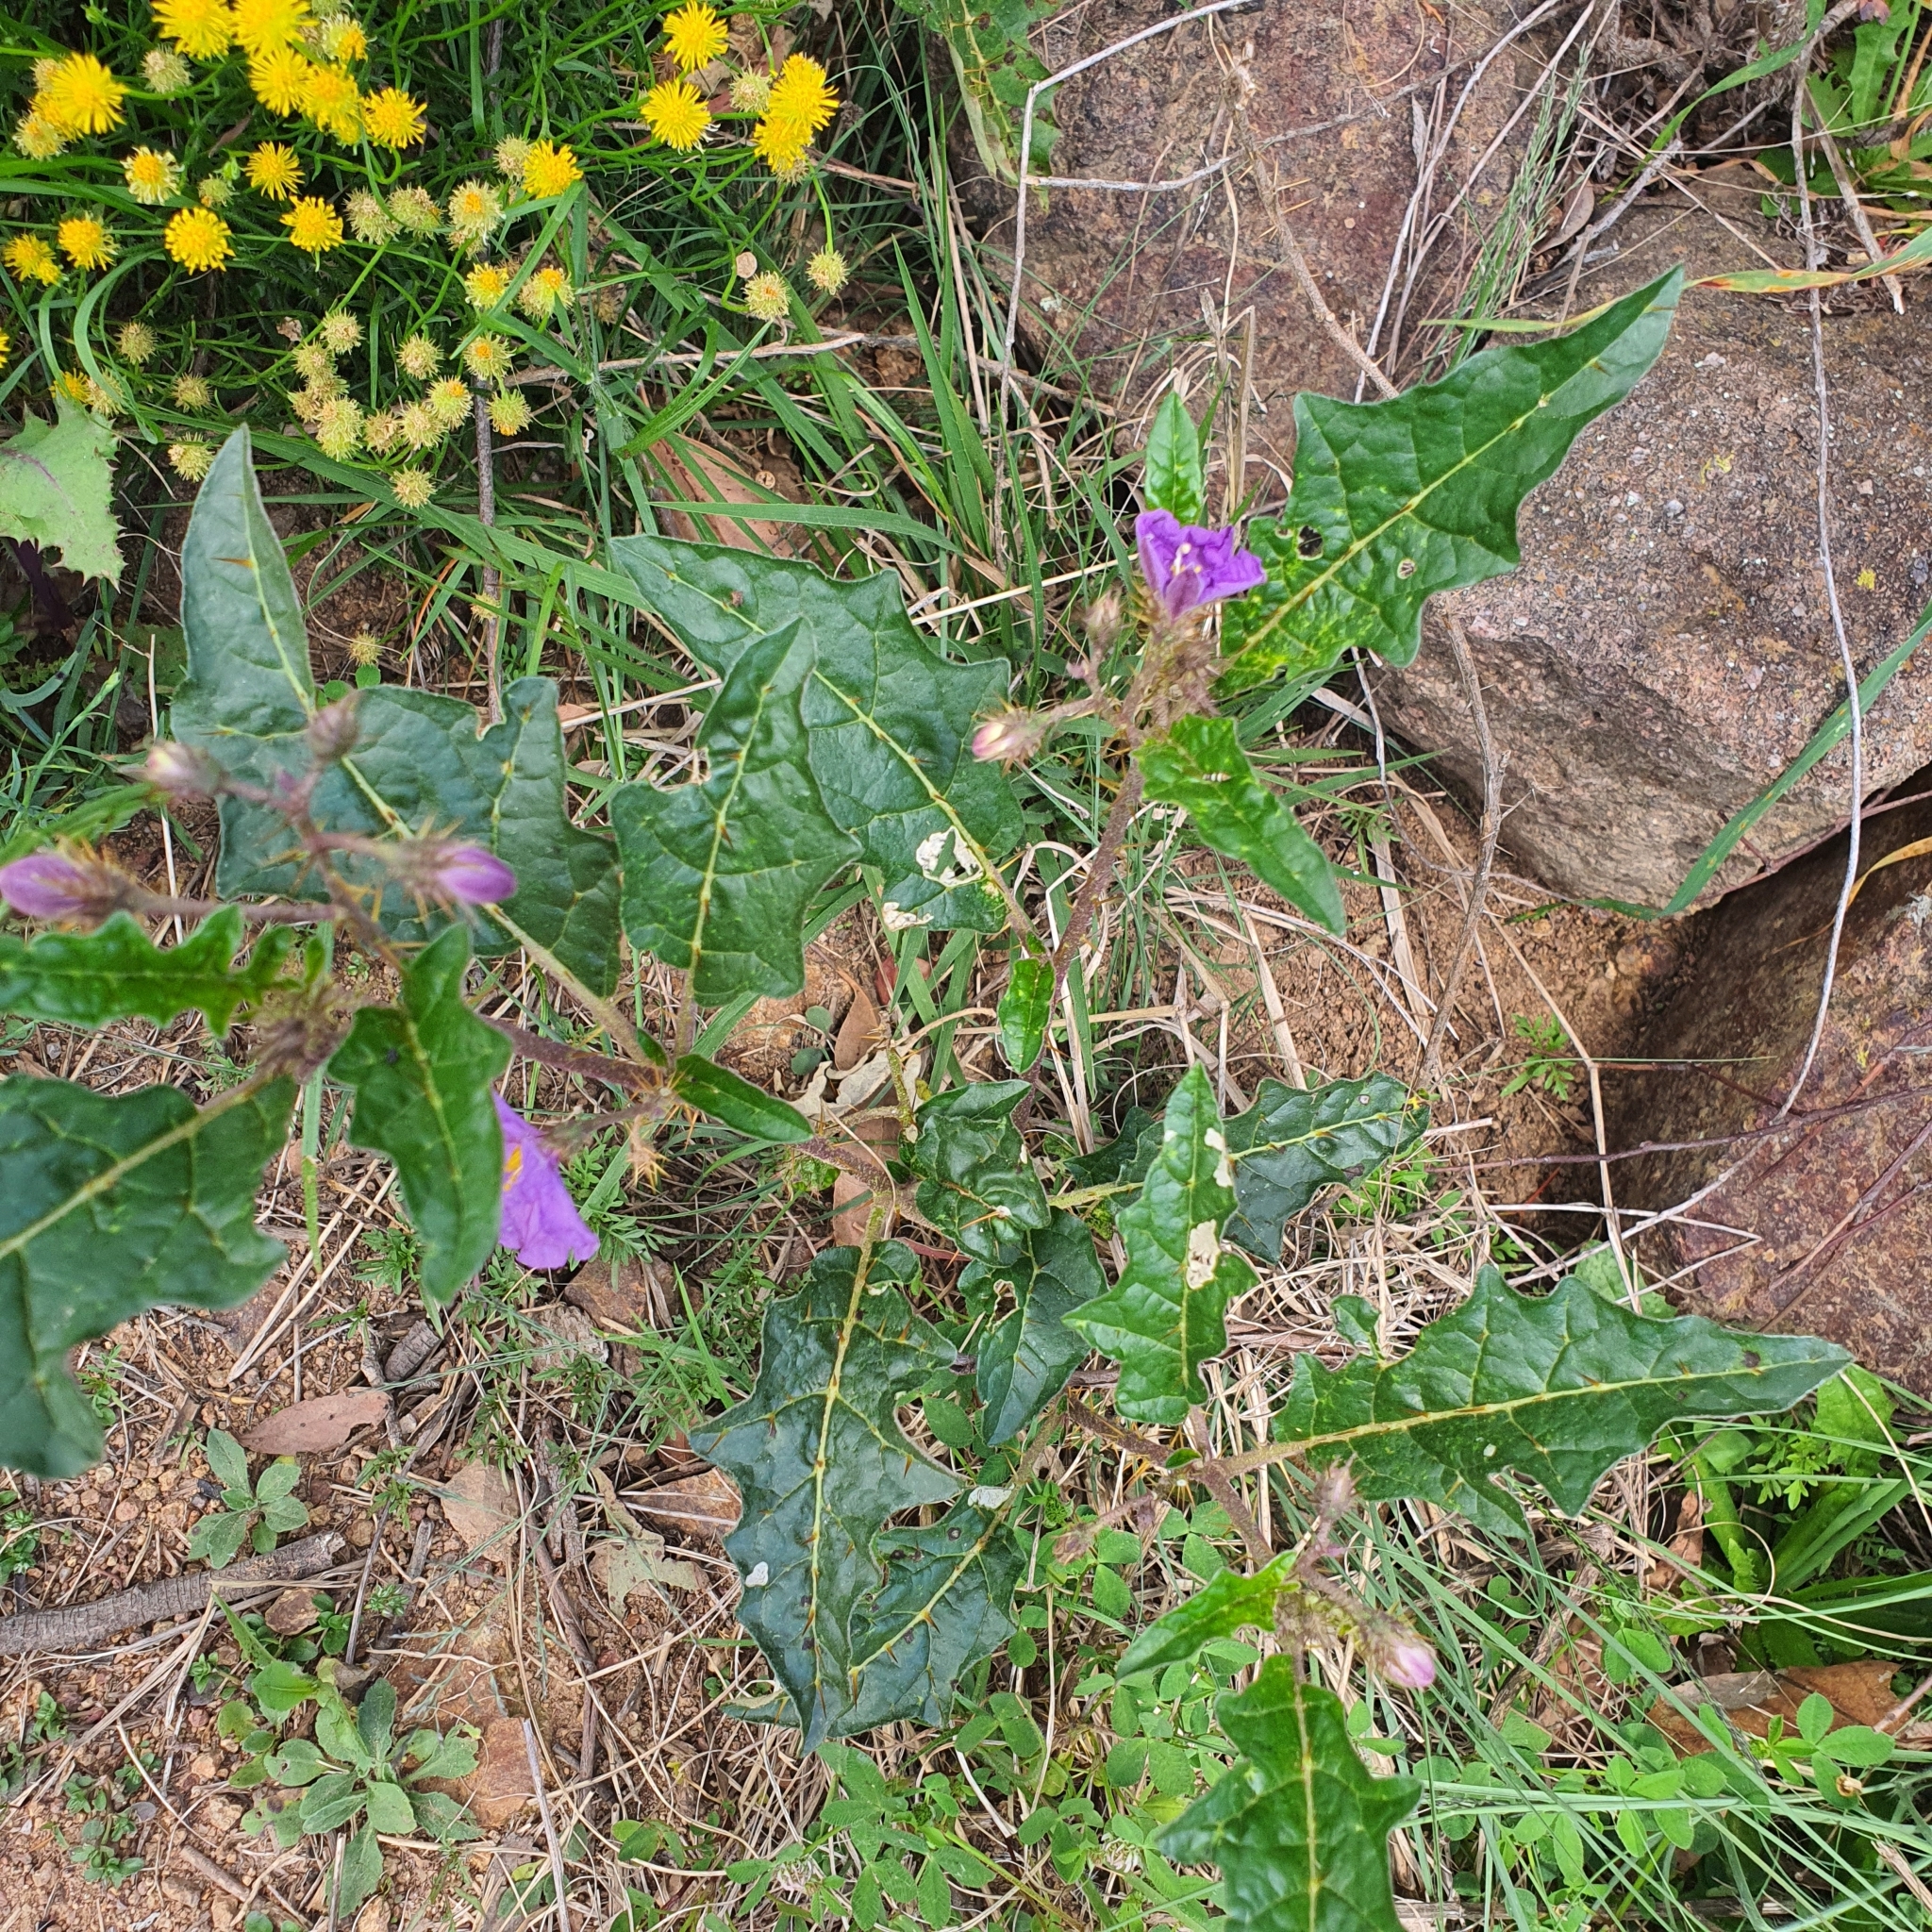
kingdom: Plantae
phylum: Tracheophyta
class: Magnoliopsida
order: Solanales
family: Solanaceae
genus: Solanum
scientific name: Solanum cinereum
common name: Narrawa-bur
